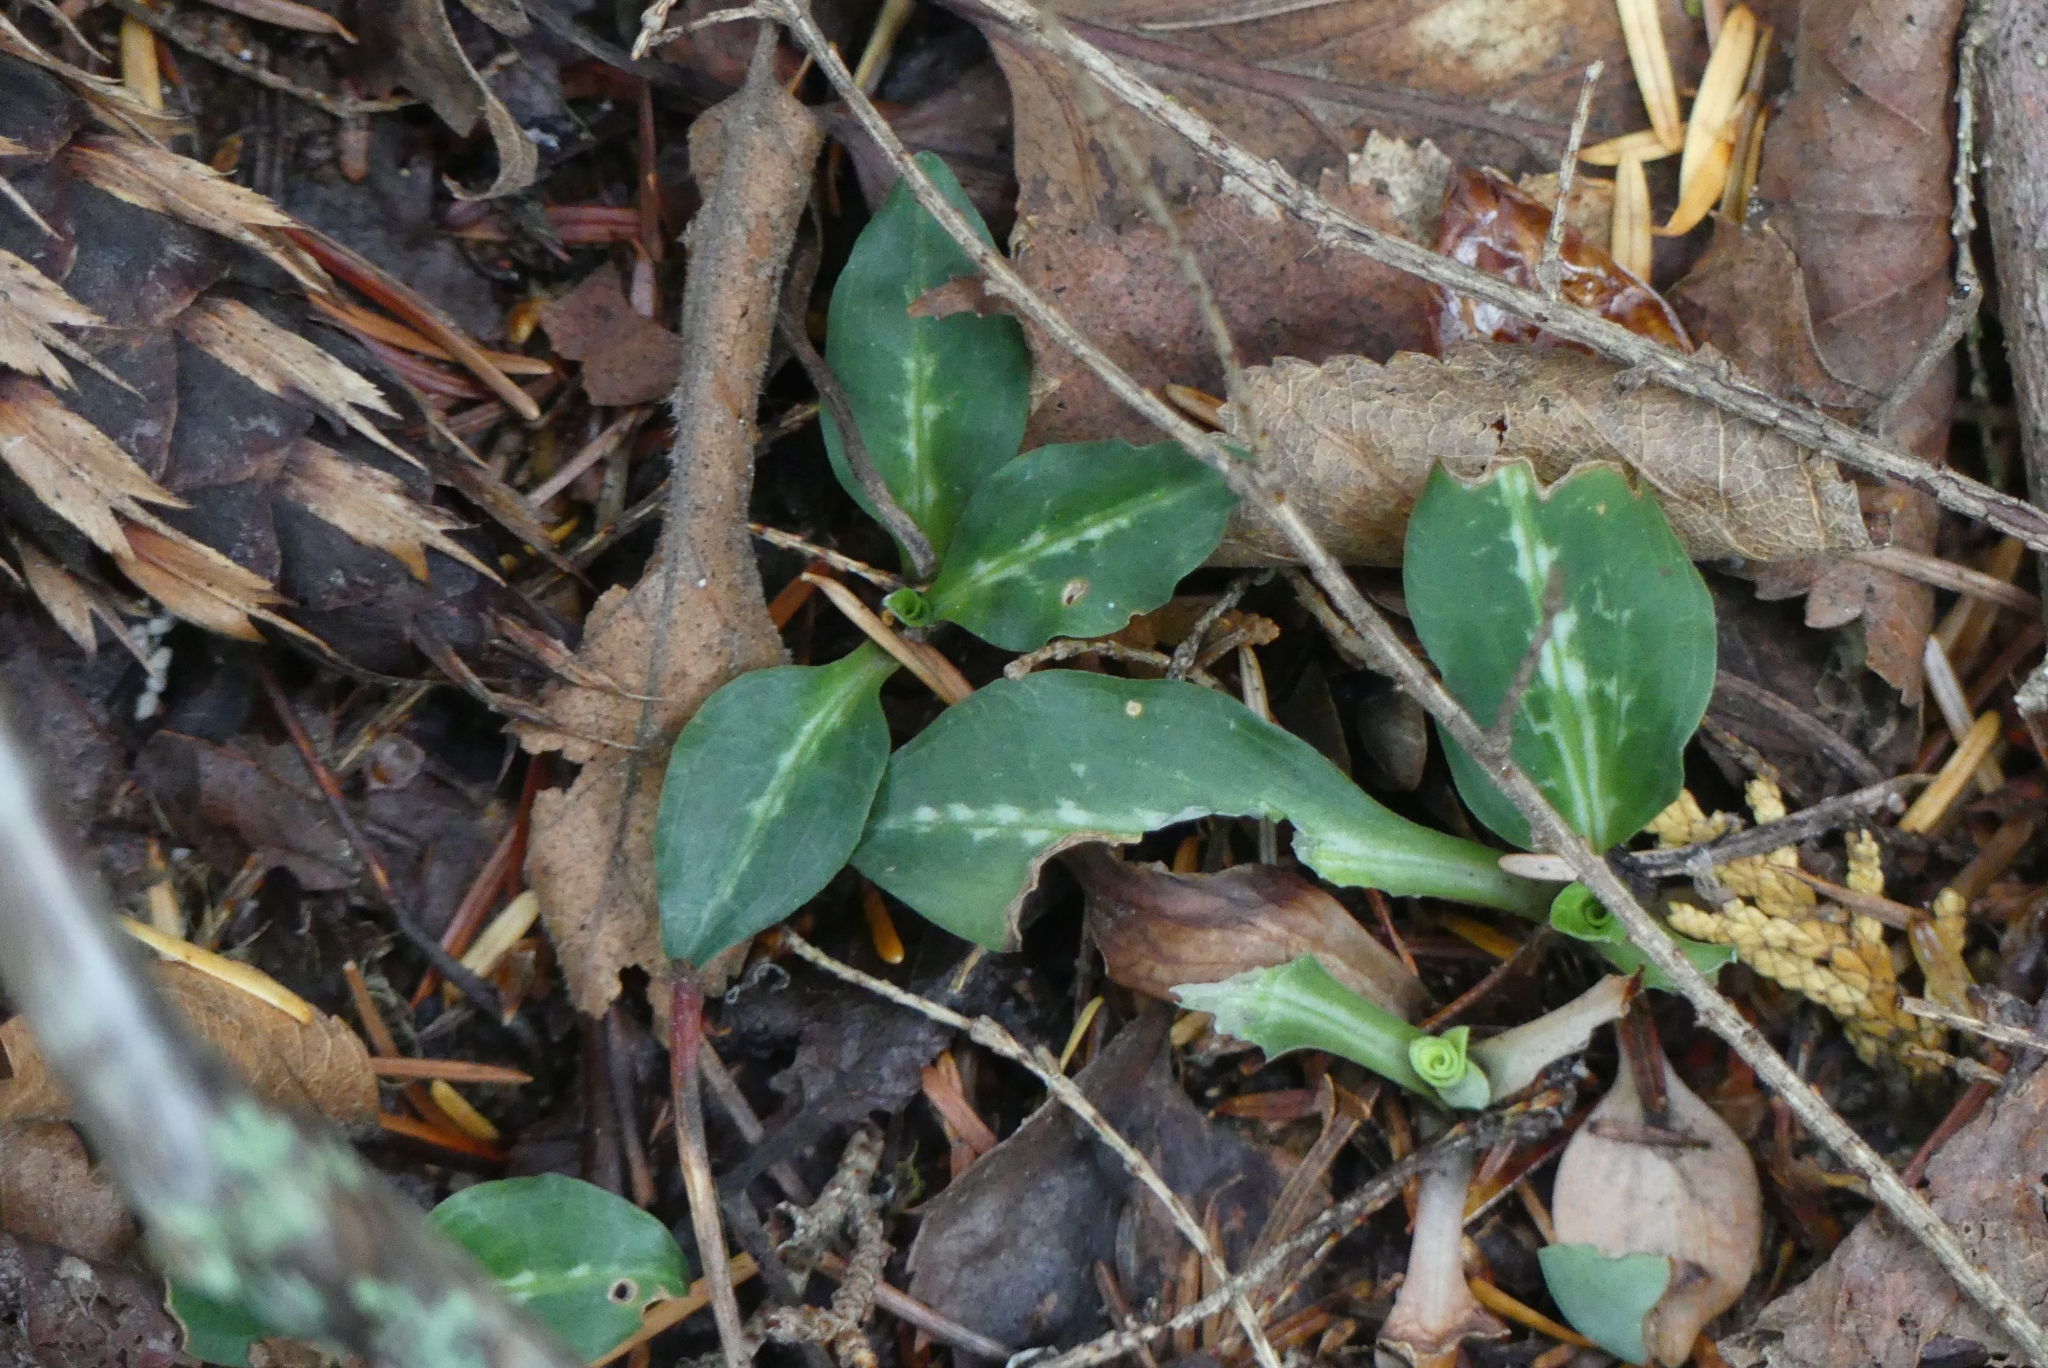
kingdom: Plantae
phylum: Tracheophyta
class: Liliopsida
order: Asparagales
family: Orchidaceae
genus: Goodyera
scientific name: Goodyera oblongifolia
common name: Giant rattlesnake-plantain
